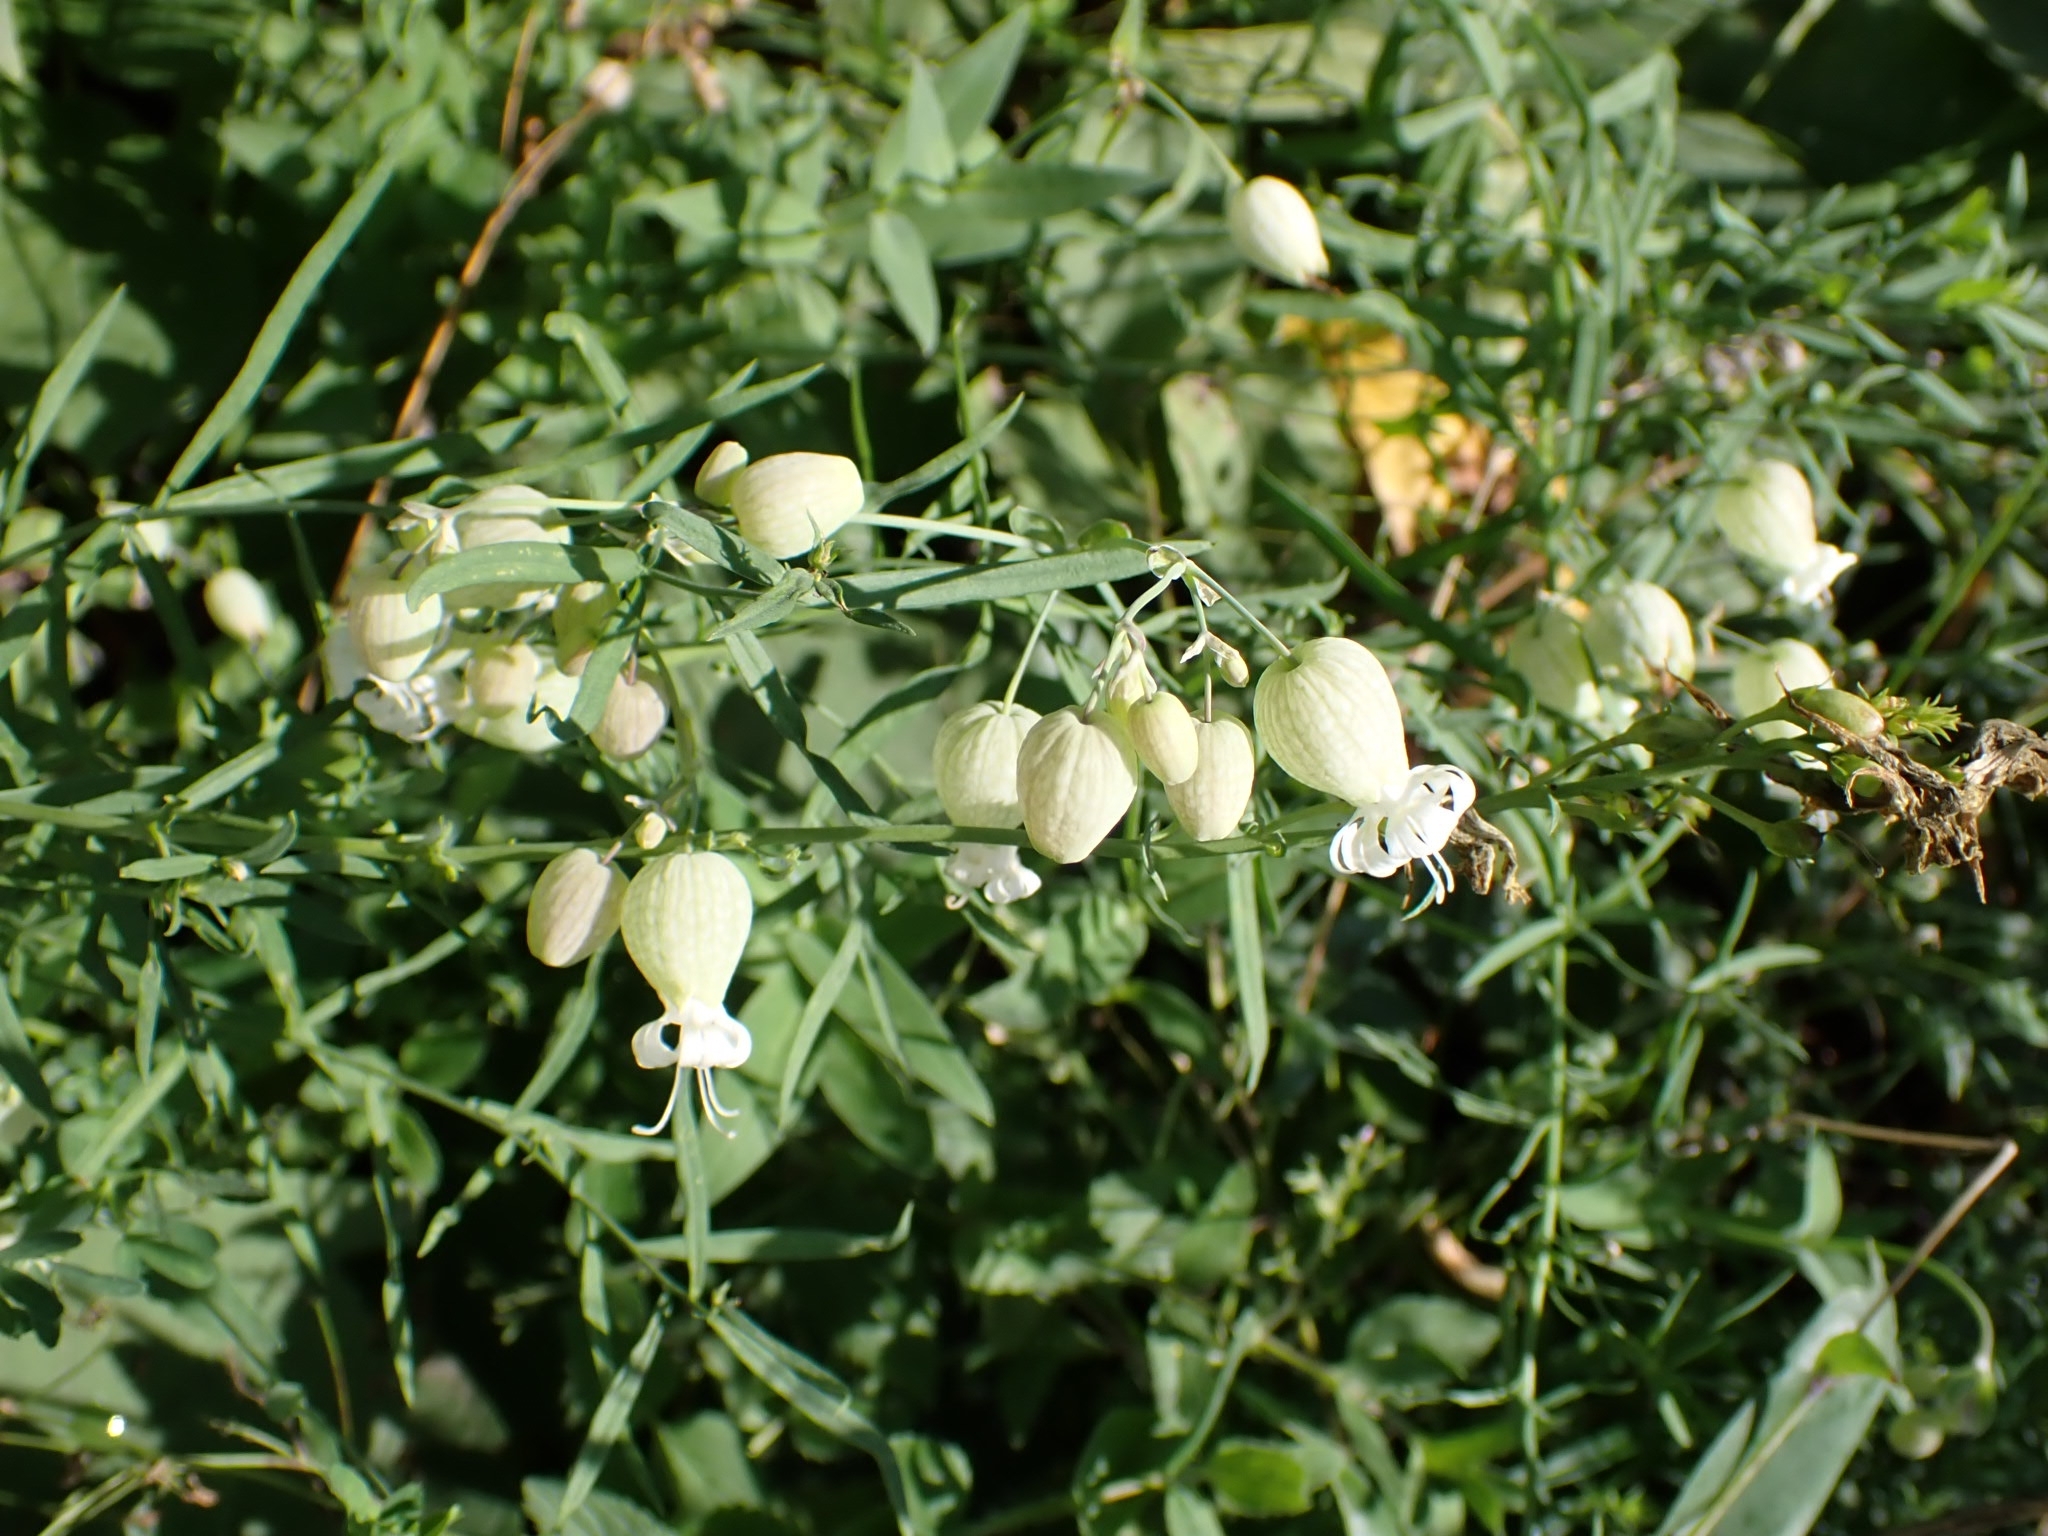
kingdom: Plantae
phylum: Tracheophyta
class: Magnoliopsida
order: Caryophyllales
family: Caryophyllaceae
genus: Silene
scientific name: Silene vulgaris
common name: Bladder campion
